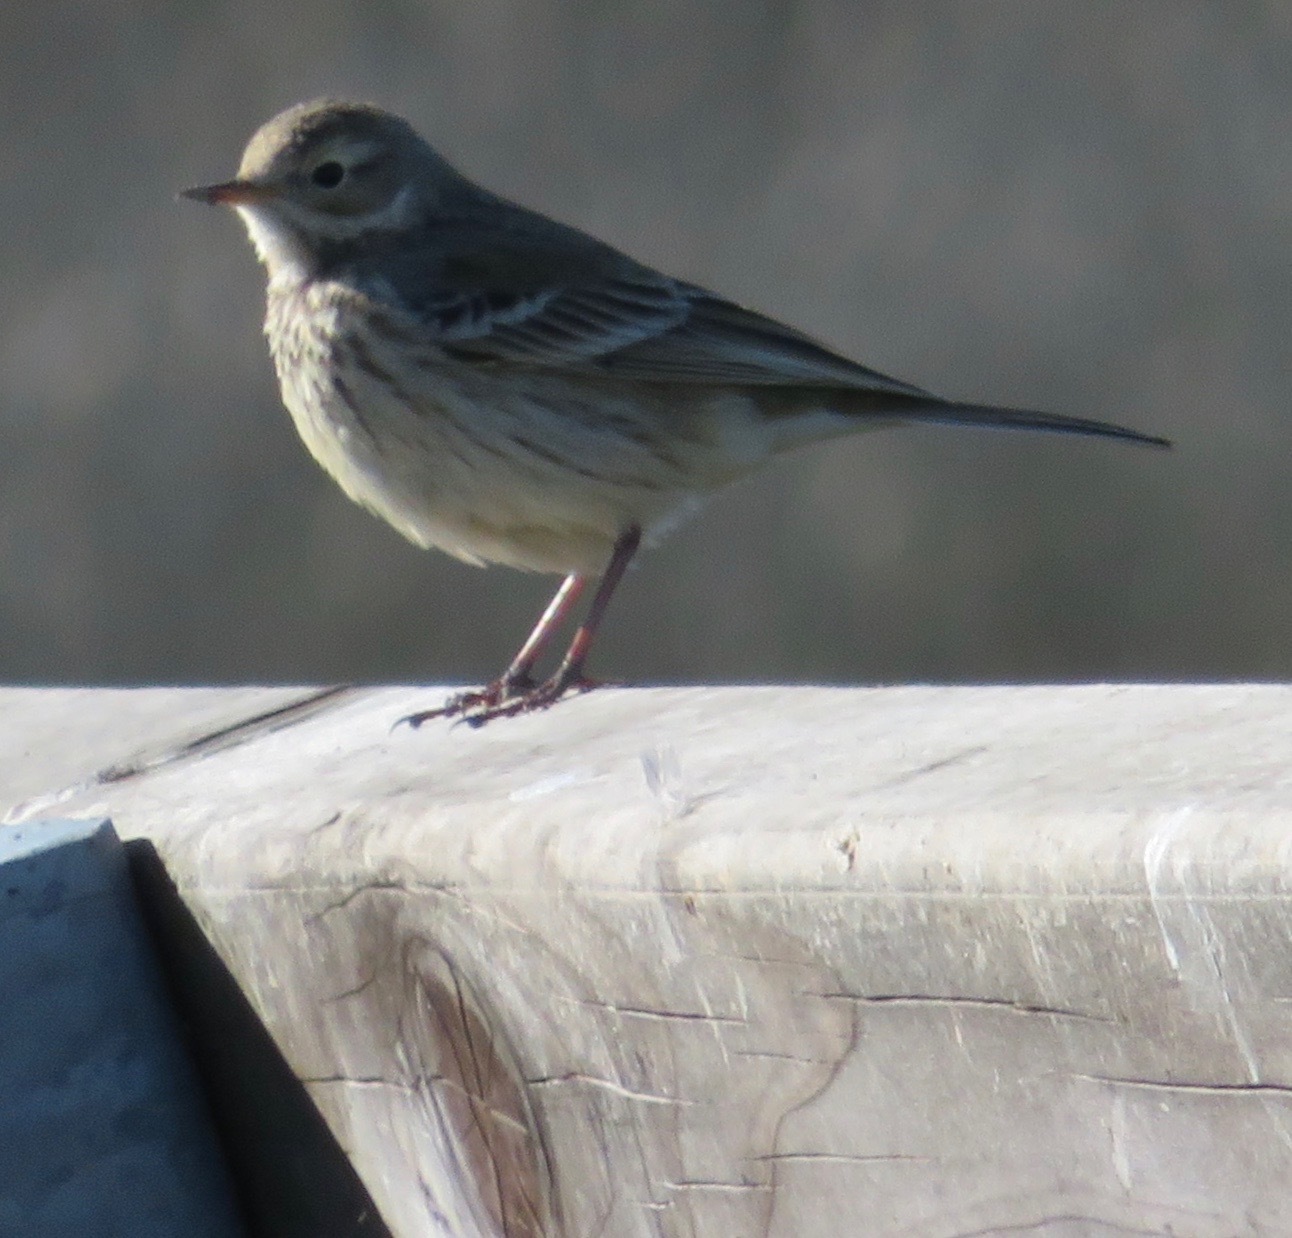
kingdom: Animalia
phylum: Chordata
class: Aves
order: Passeriformes
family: Motacillidae
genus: Anthus
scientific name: Anthus rubescens
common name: Buff-bellied pipit
